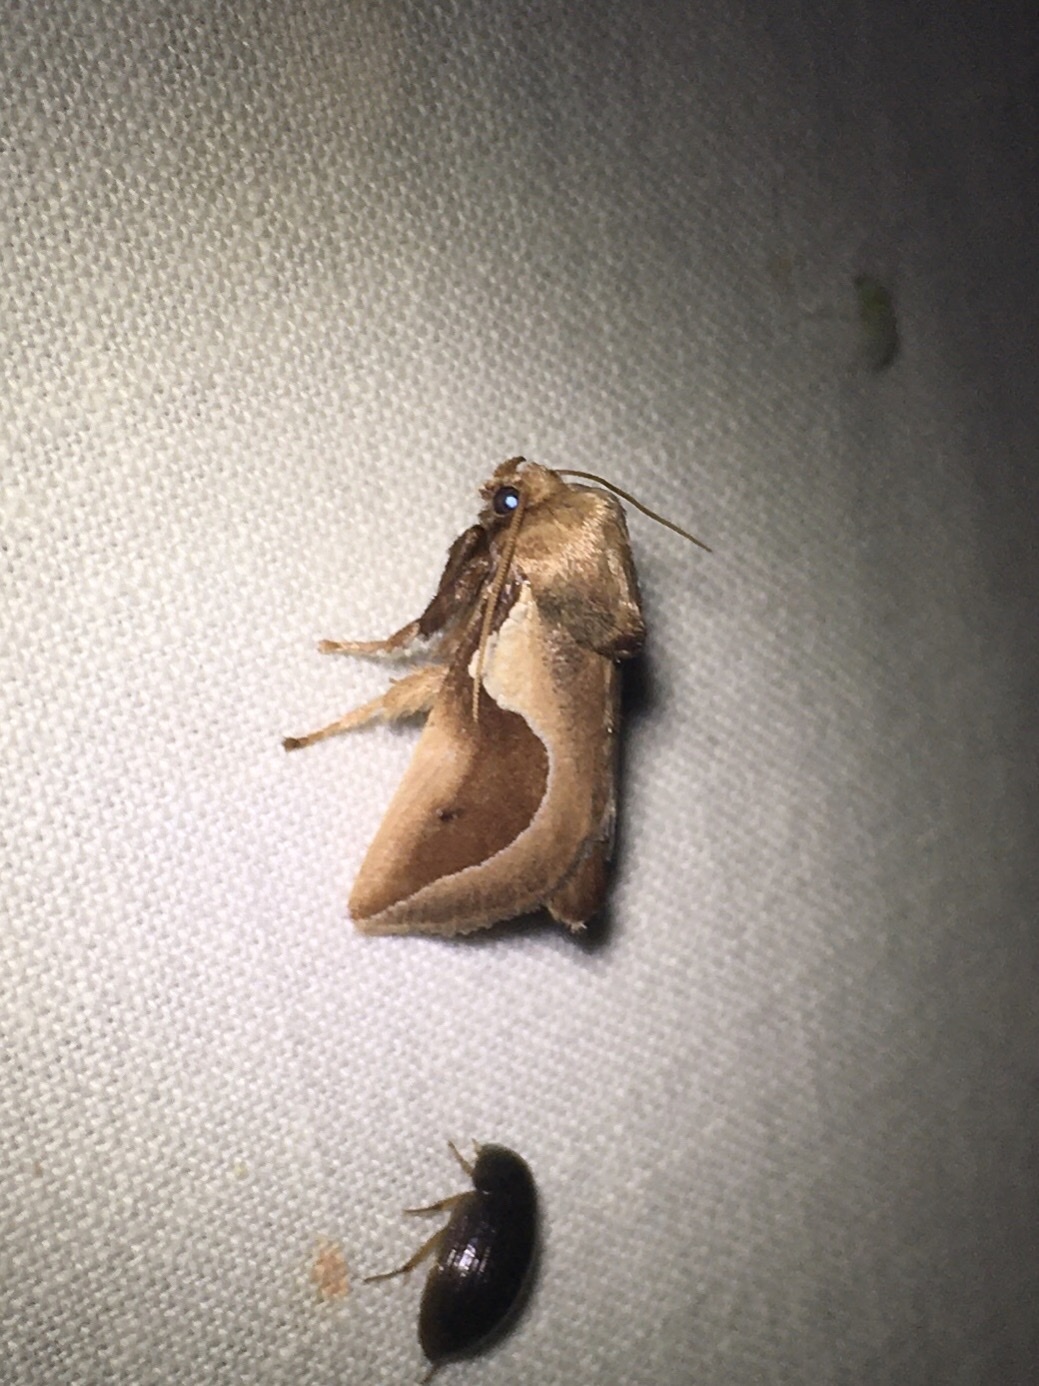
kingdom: Animalia
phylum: Arthropoda
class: Insecta
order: Lepidoptera
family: Limacodidae
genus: Prolimacodes
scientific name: Prolimacodes badia
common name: Skiff moth
